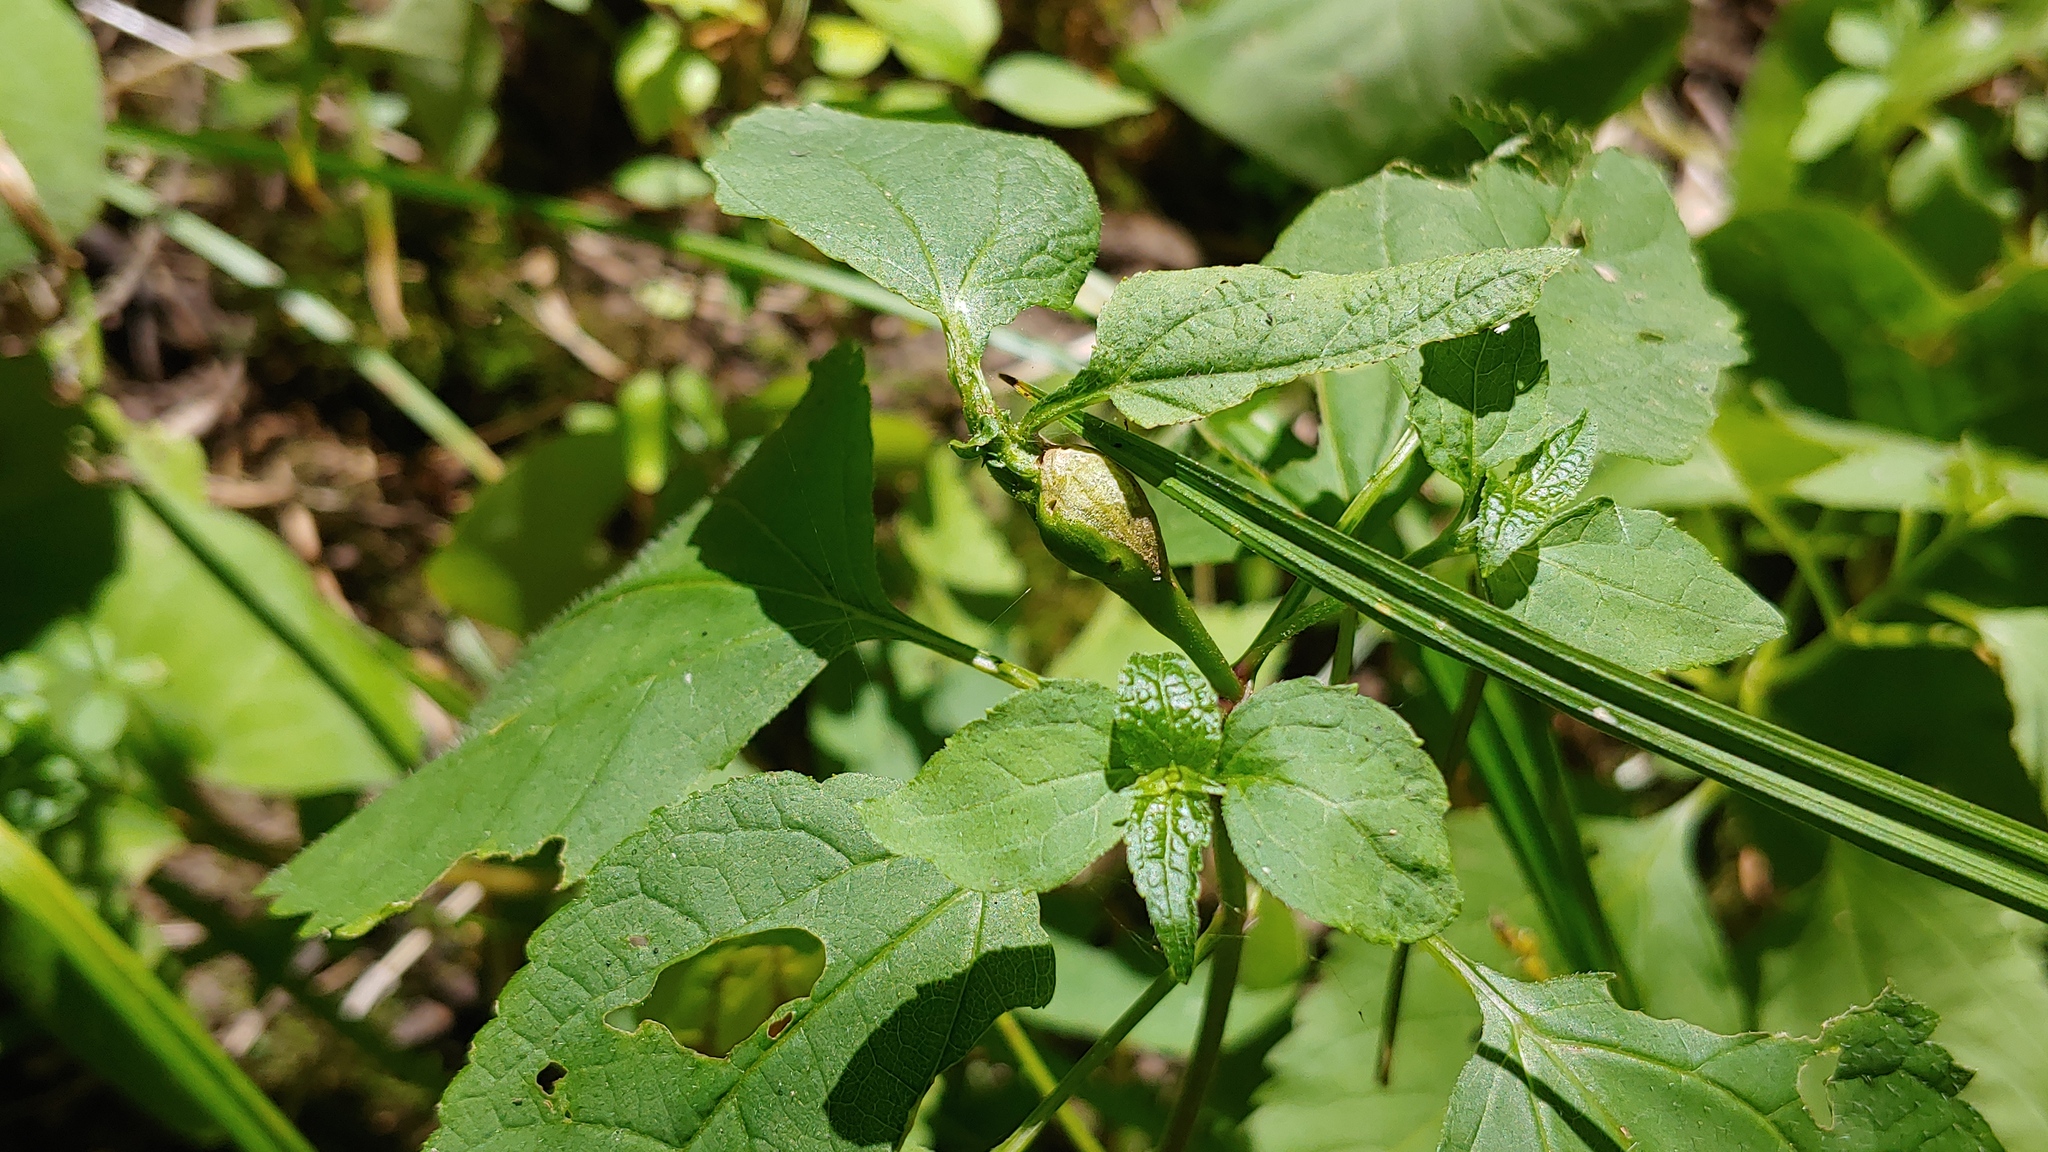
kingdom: Animalia
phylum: Arthropoda
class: Insecta
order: Diptera
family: Cecidomyiidae
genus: Asphondylia
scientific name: Asphondylia eupatorii
